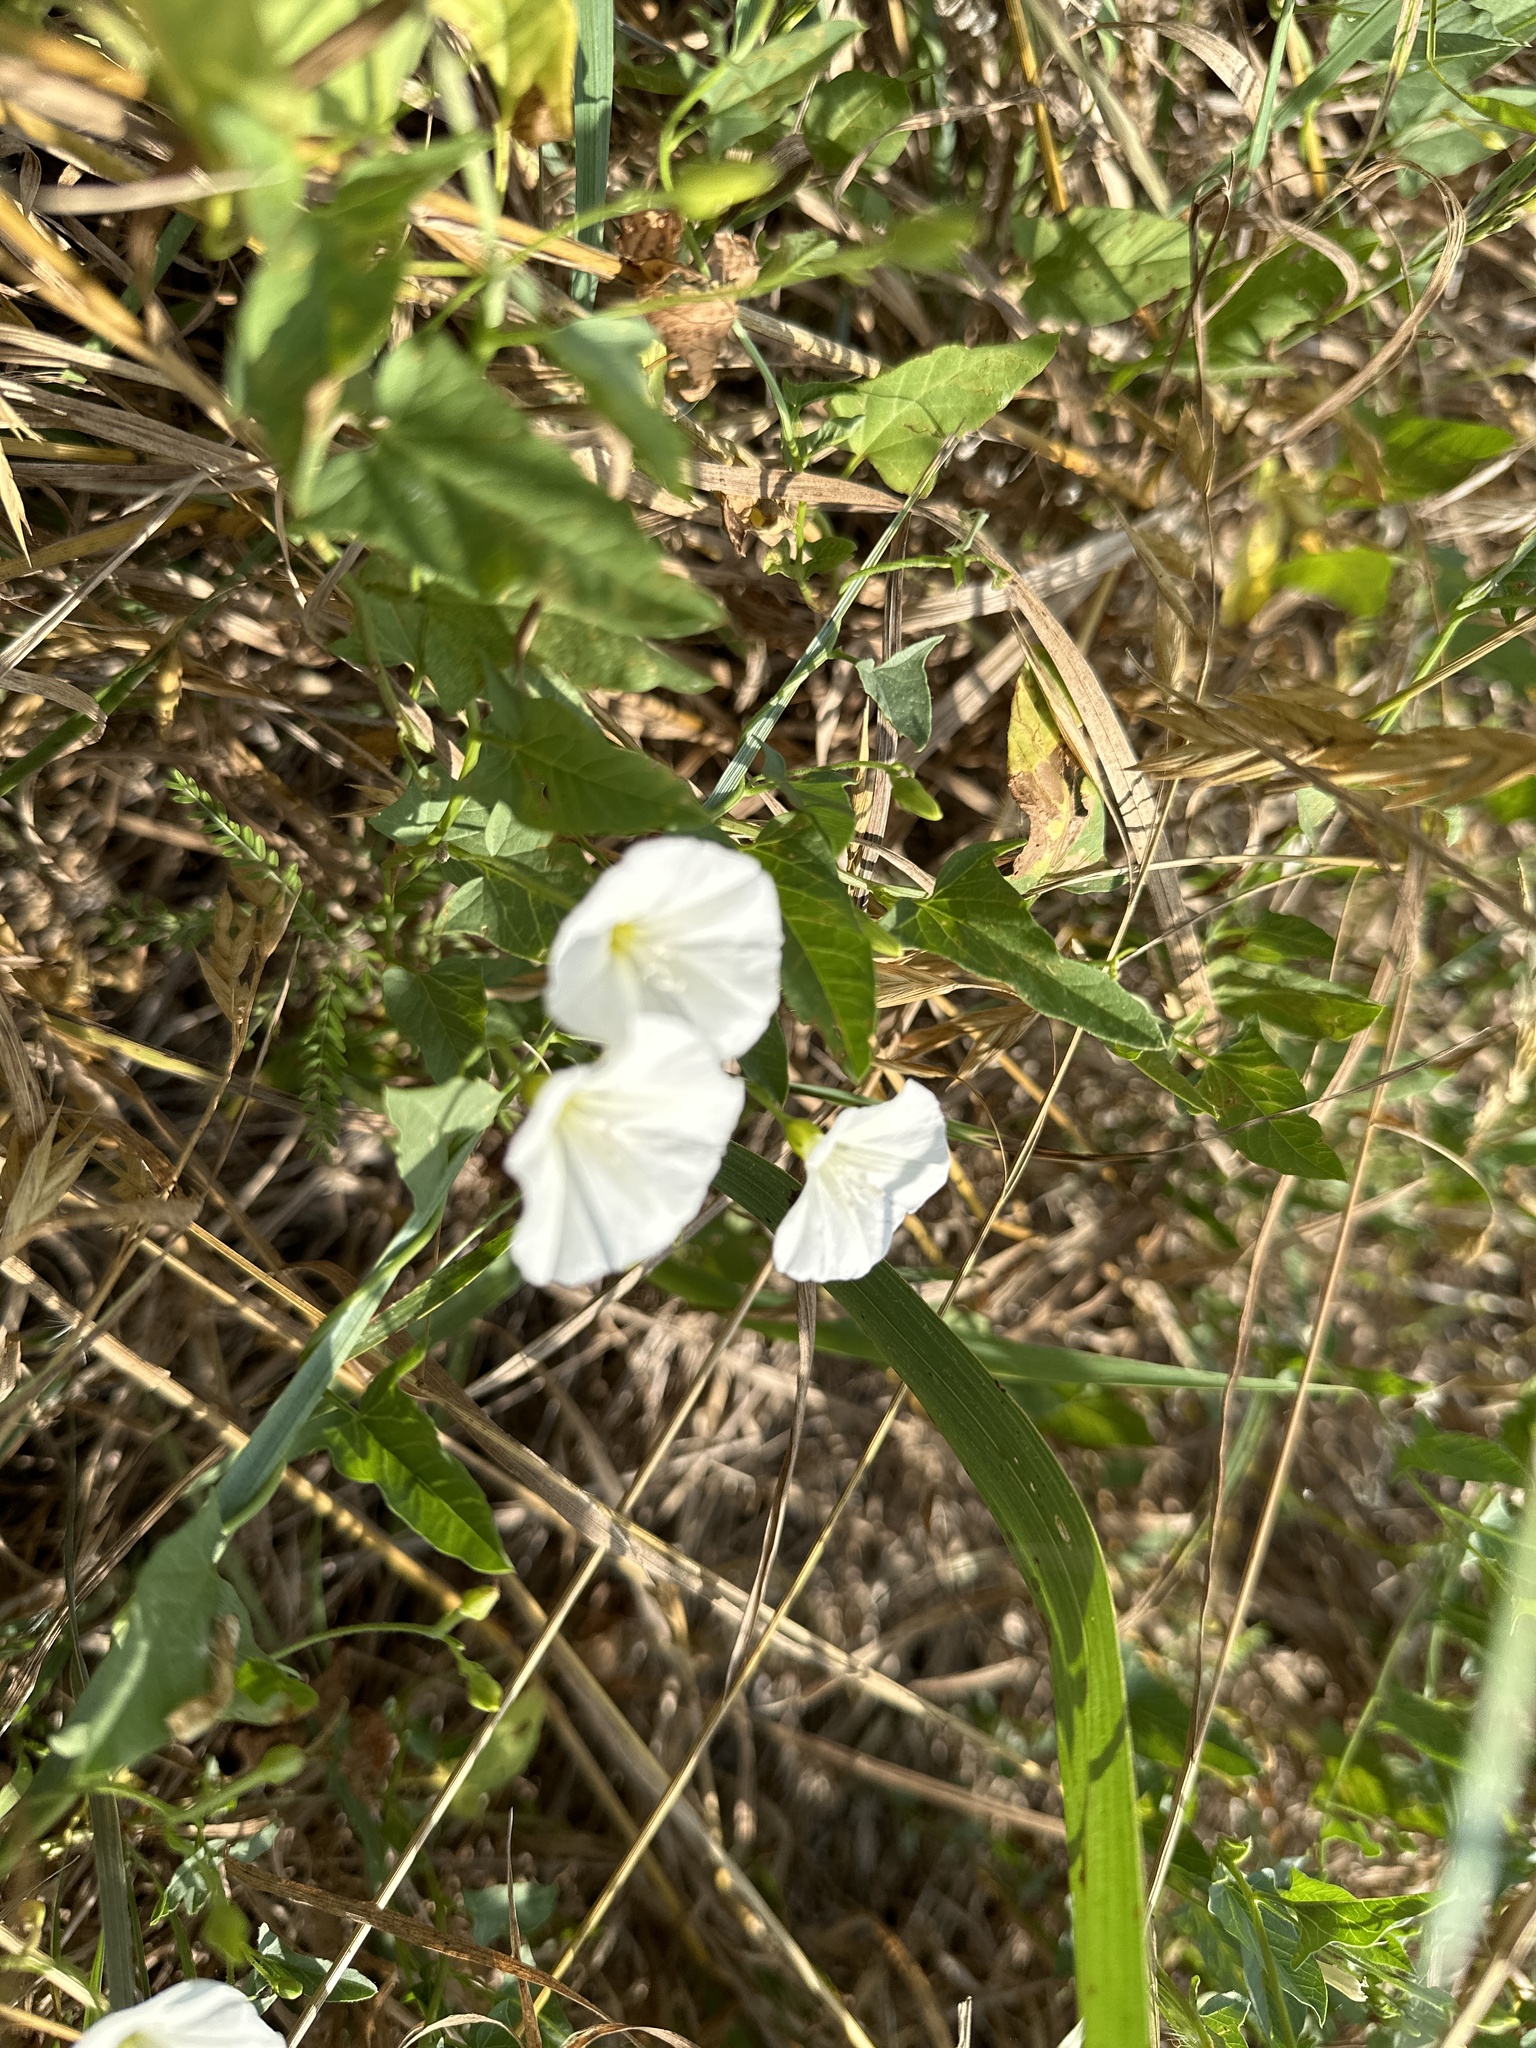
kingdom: Plantae
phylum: Tracheophyta
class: Magnoliopsida
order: Solanales
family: Convolvulaceae
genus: Convolvulus
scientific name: Convolvulus arvensis
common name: Field bindweed
